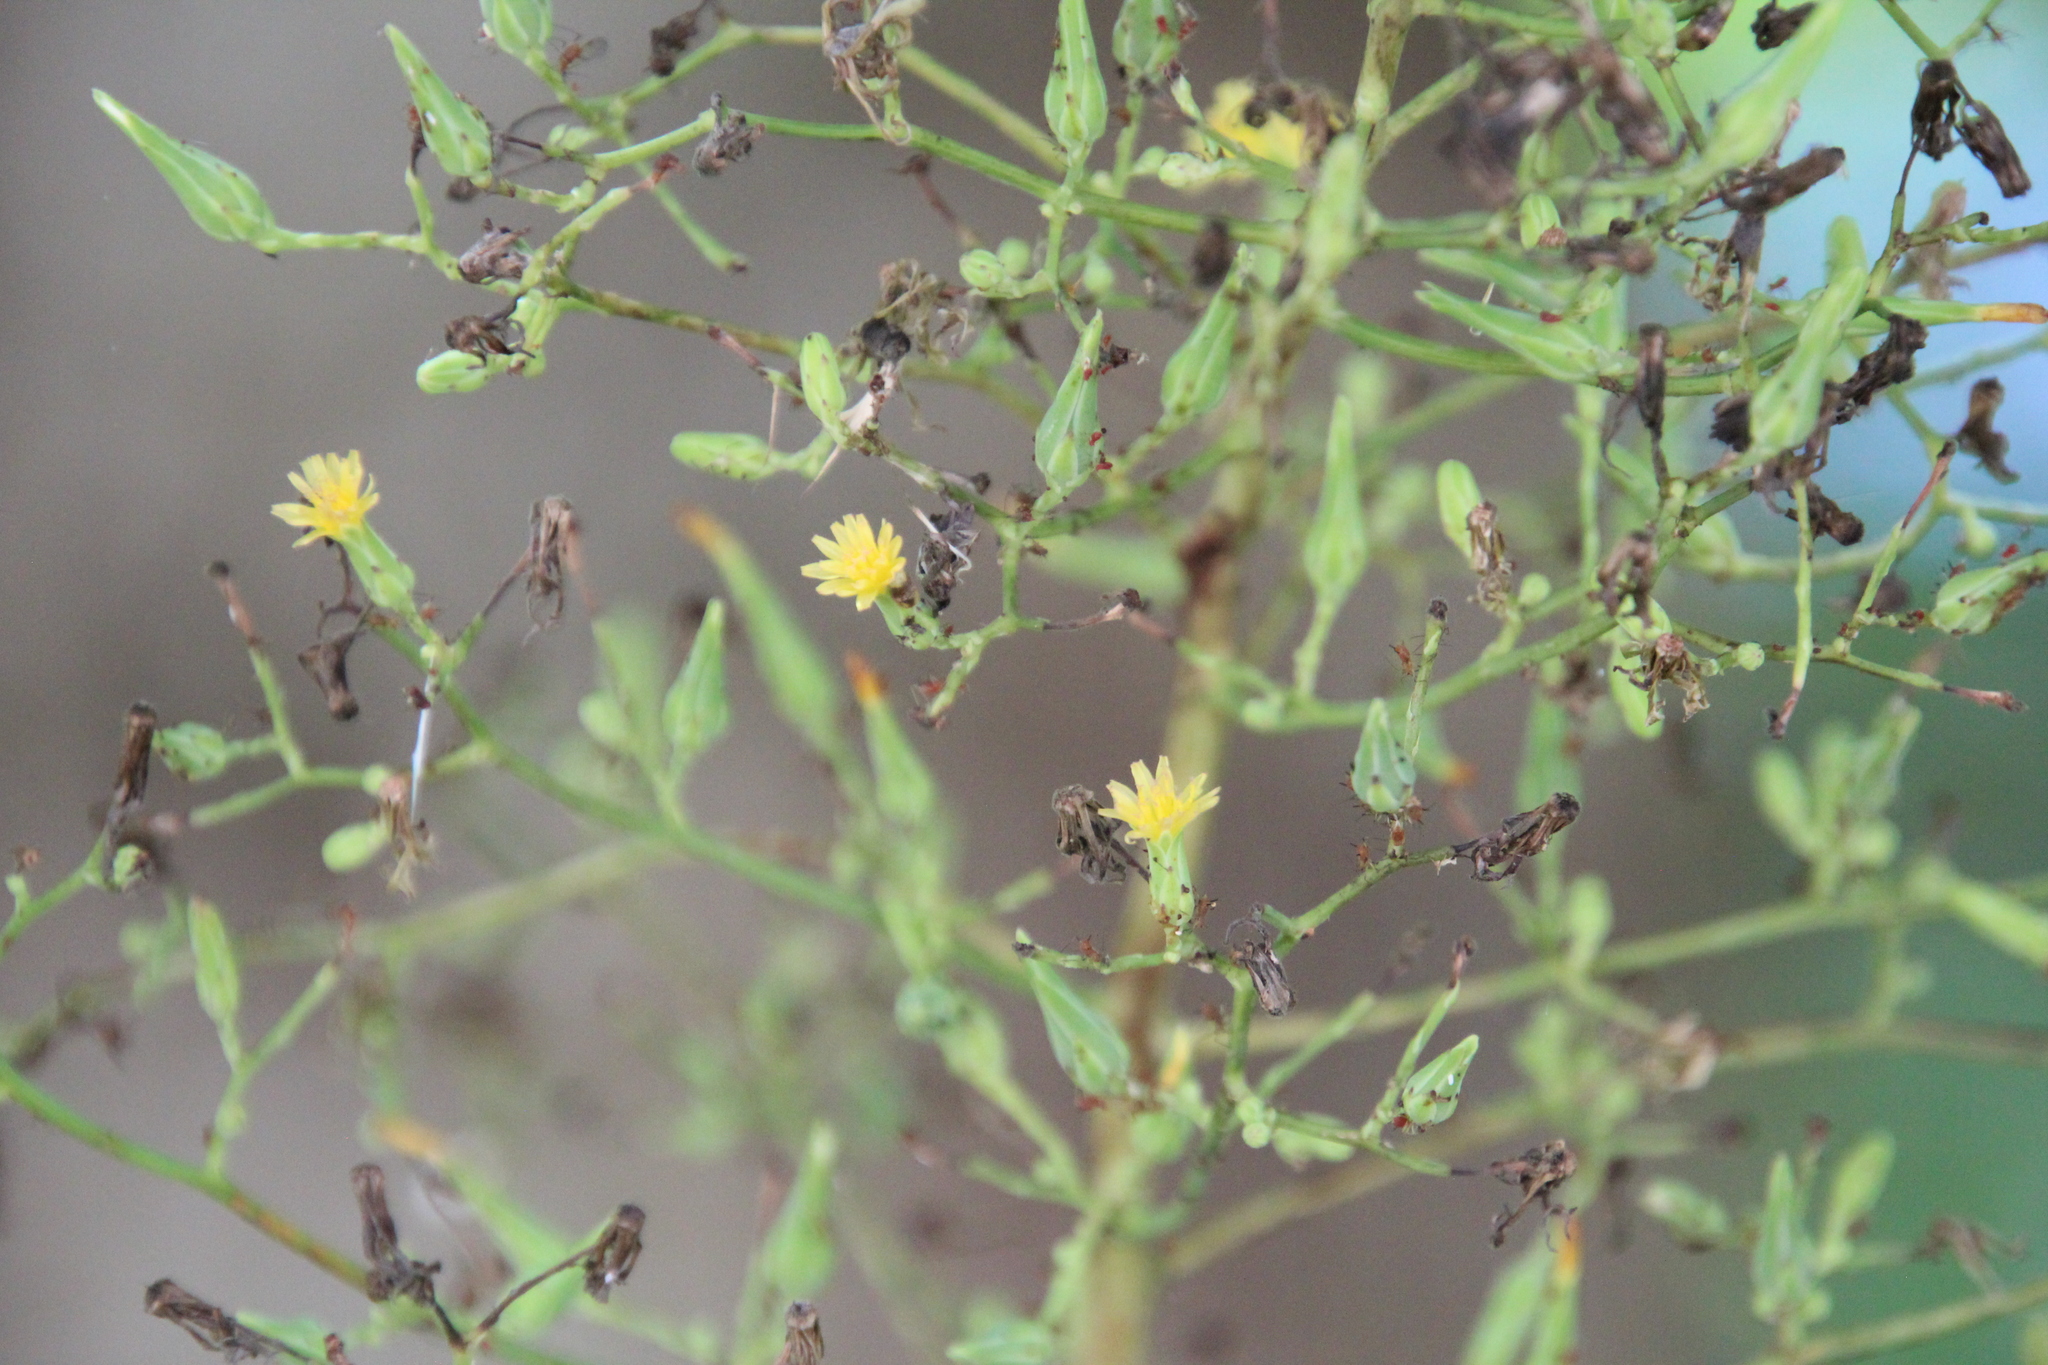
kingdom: Plantae
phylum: Tracheophyta
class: Magnoliopsida
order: Asterales
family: Asteraceae
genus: Lactuca
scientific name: Lactuca canadensis
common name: Canada lettuce
